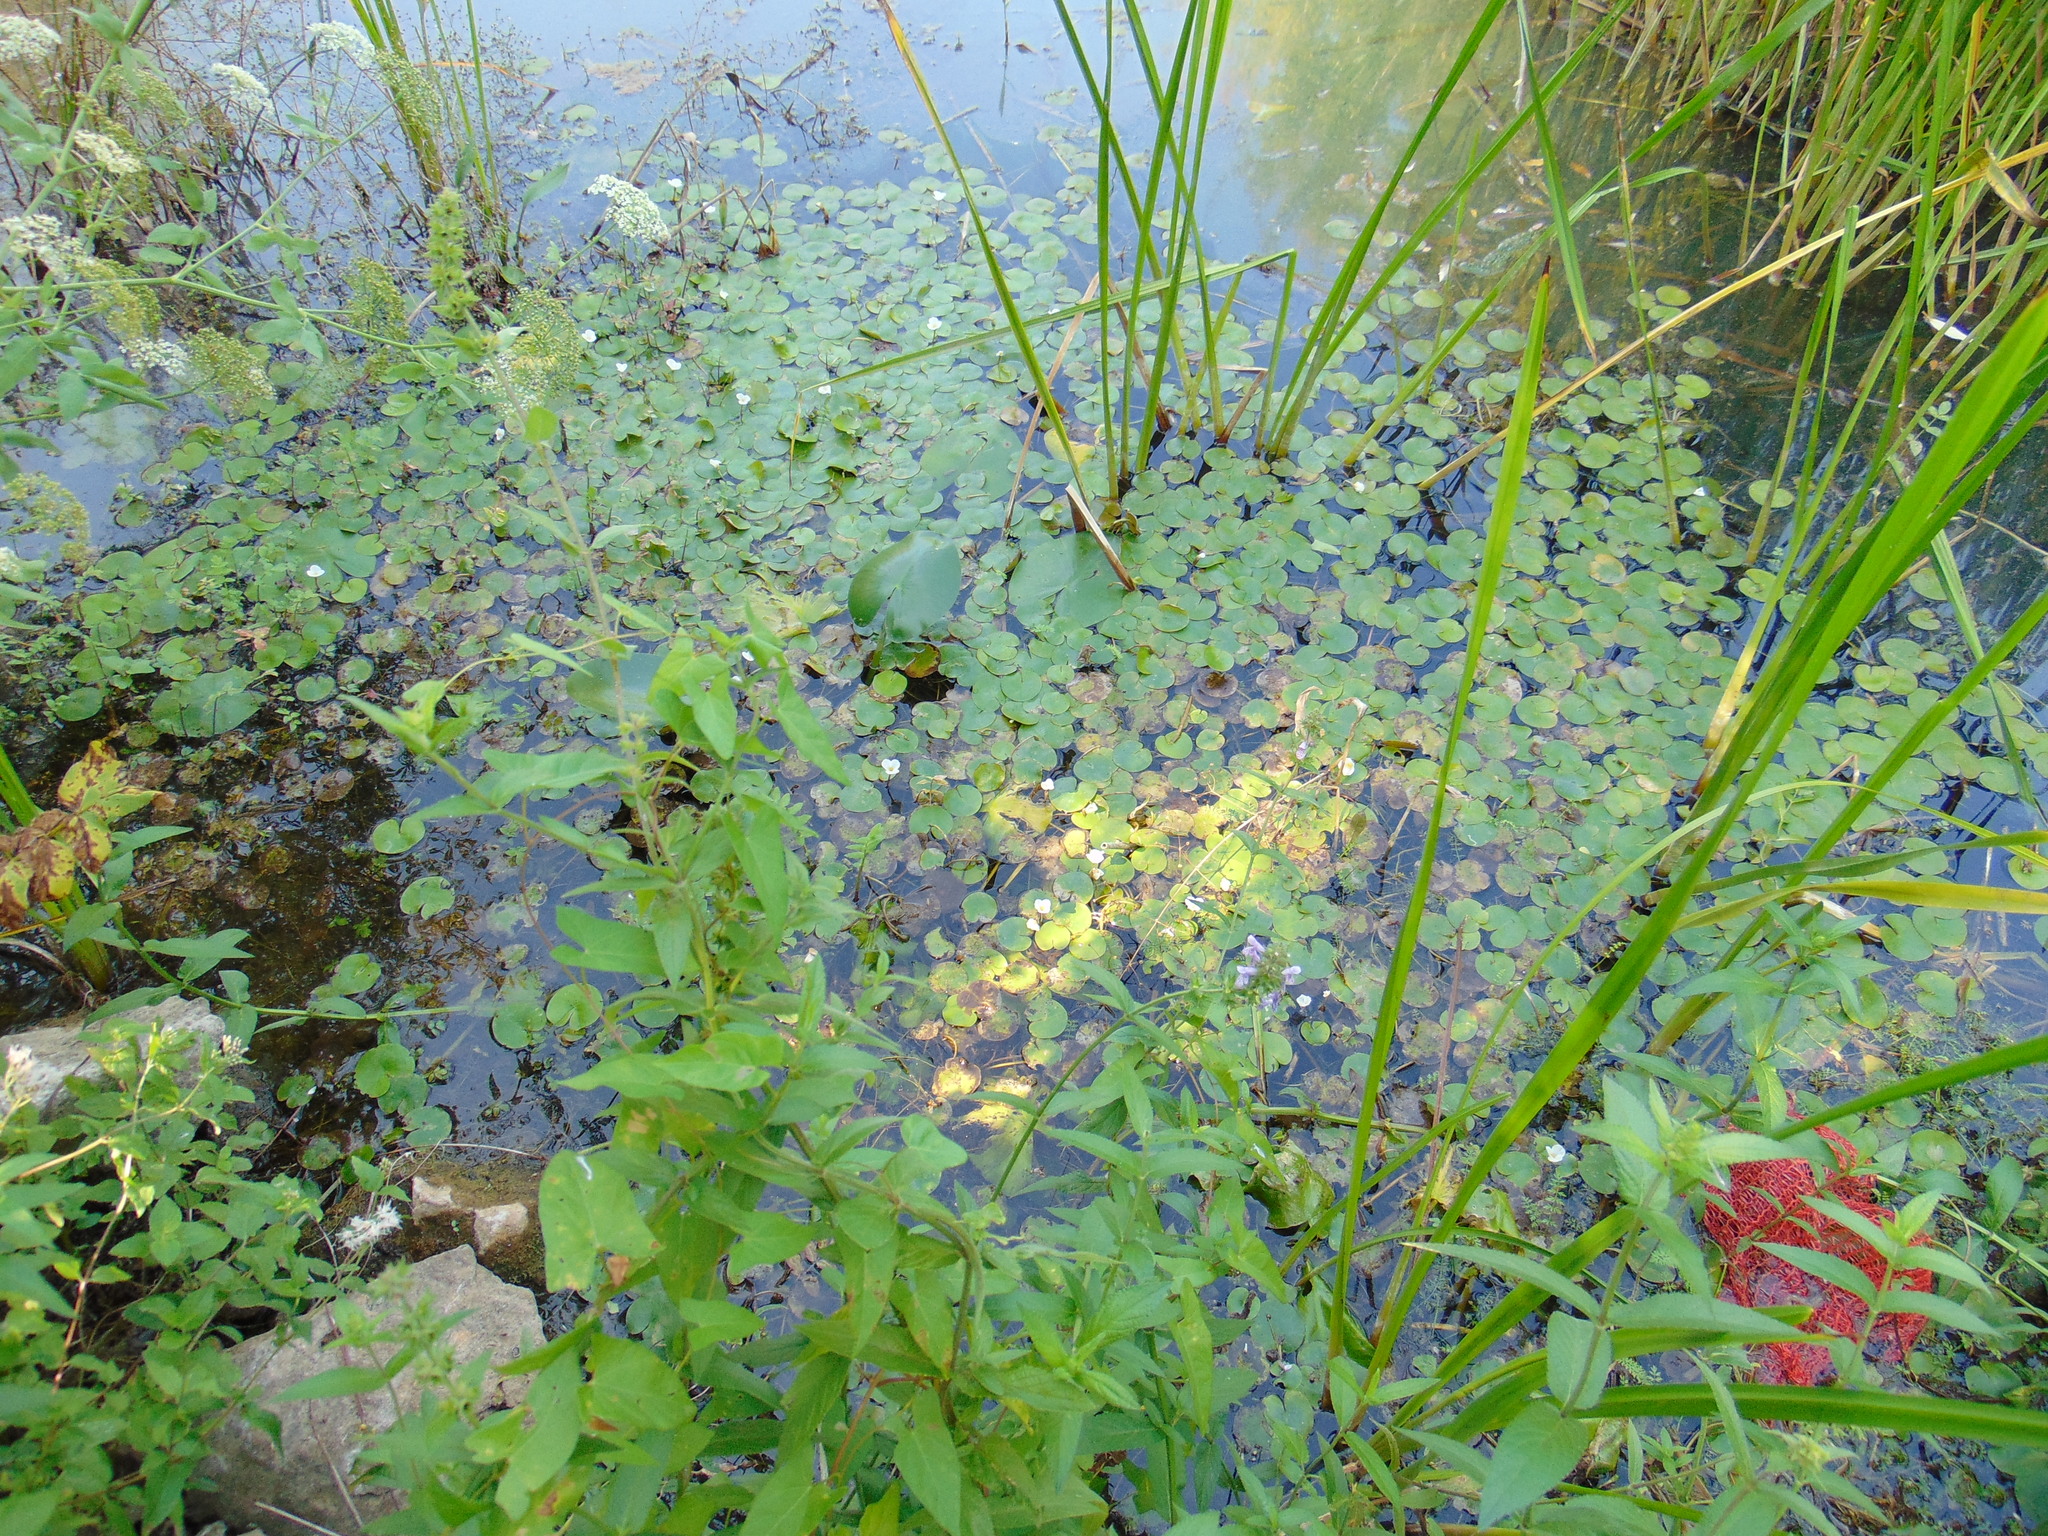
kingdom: Plantae
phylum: Tracheophyta
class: Liliopsida
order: Alismatales
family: Hydrocharitaceae
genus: Hydrocharis
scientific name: Hydrocharis morsus-ranae
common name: Frogbit
